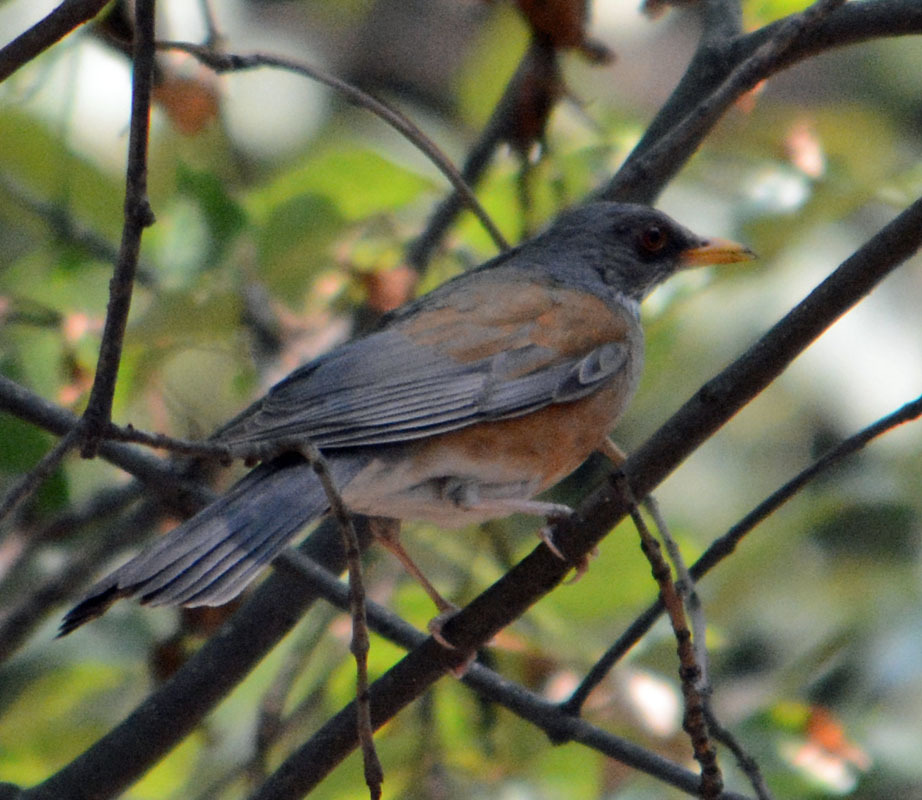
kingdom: Animalia
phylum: Chordata
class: Aves
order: Passeriformes
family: Turdidae
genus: Turdus
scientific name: Turdus rufopalliatus
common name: Rufous-backed robin
